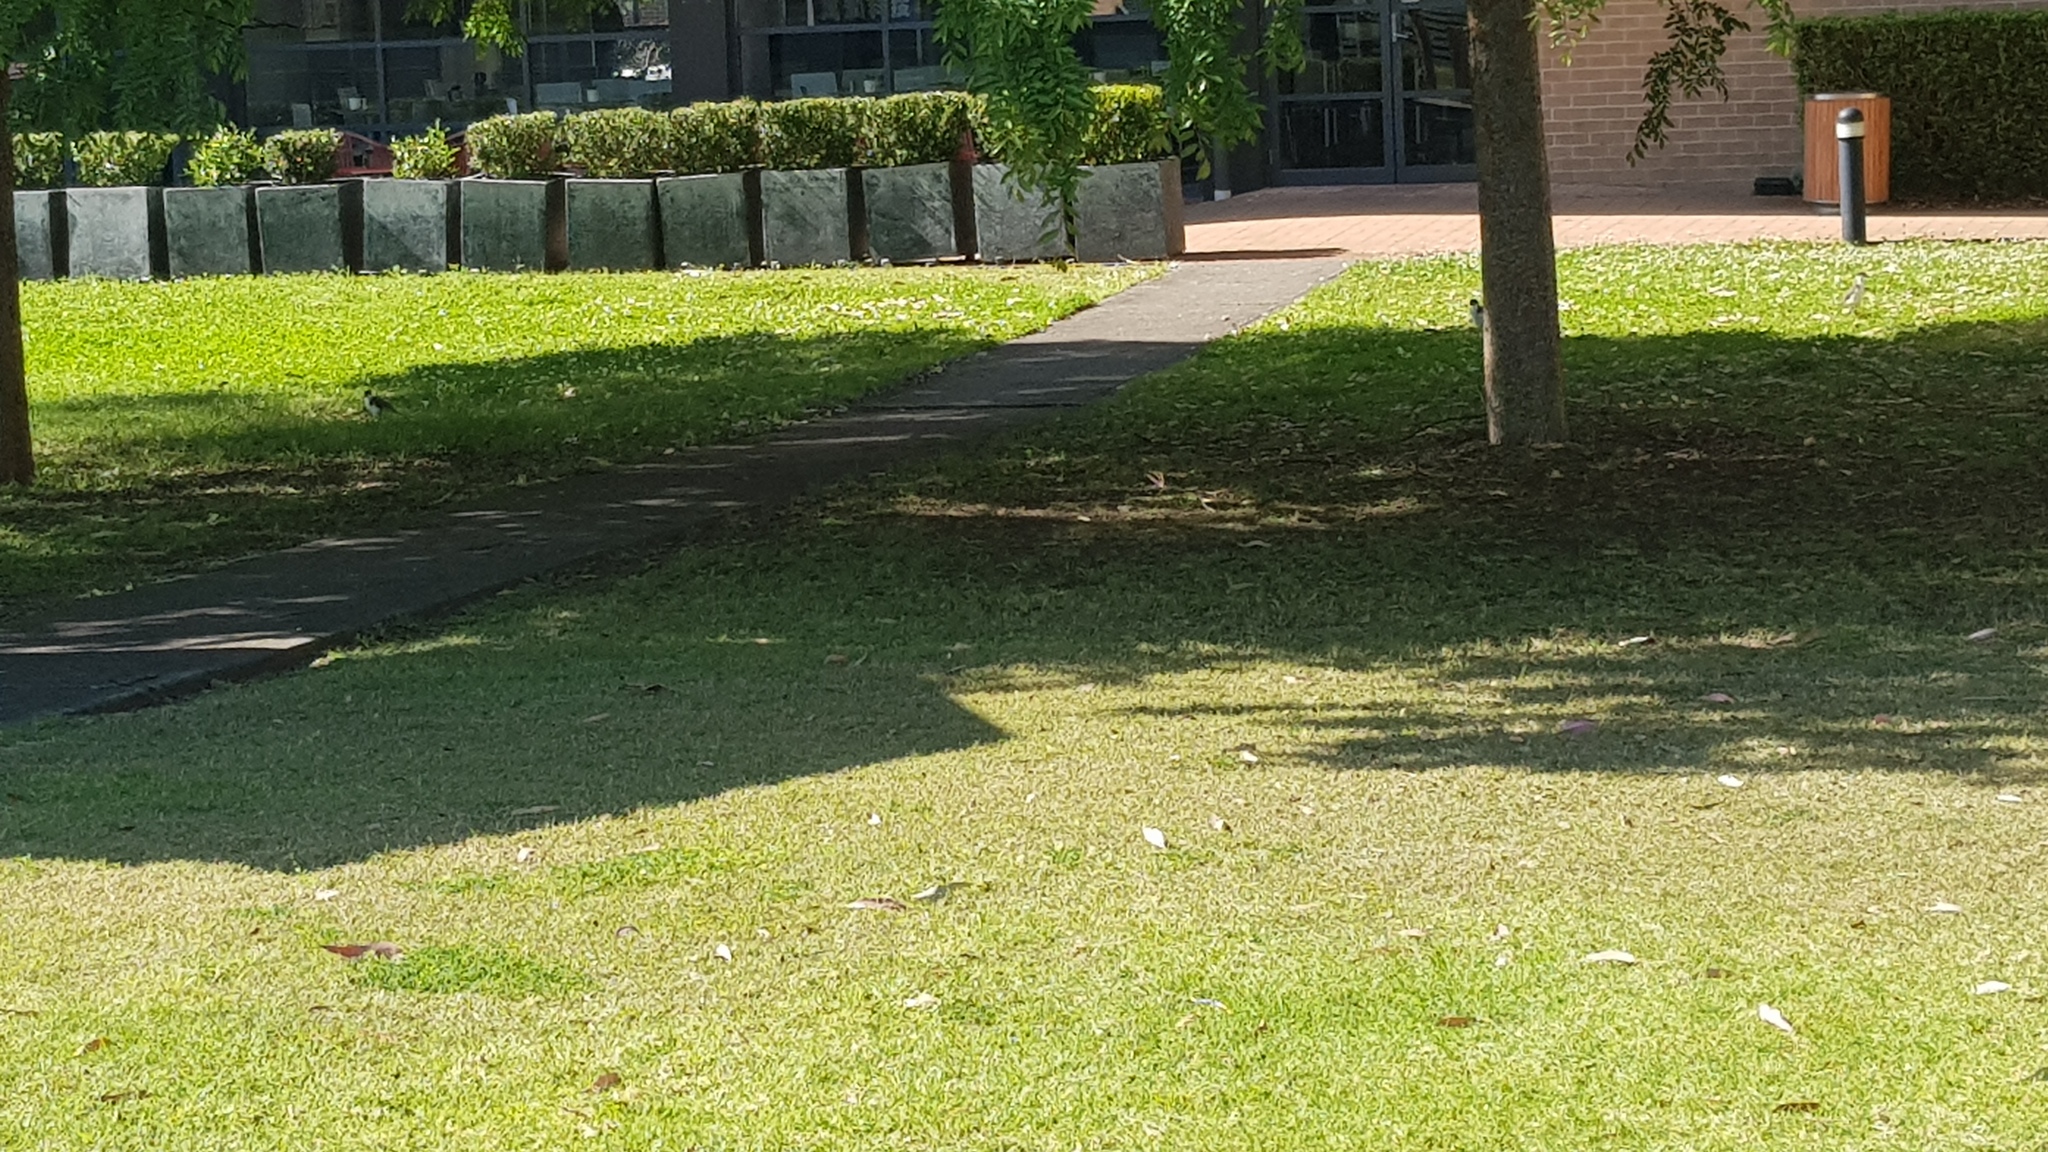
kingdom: Animalia
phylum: Chordata
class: Aves
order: Charadriiformes
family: Charadriidae
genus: Vanellus
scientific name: Vanellus miles
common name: Masked lapwing
